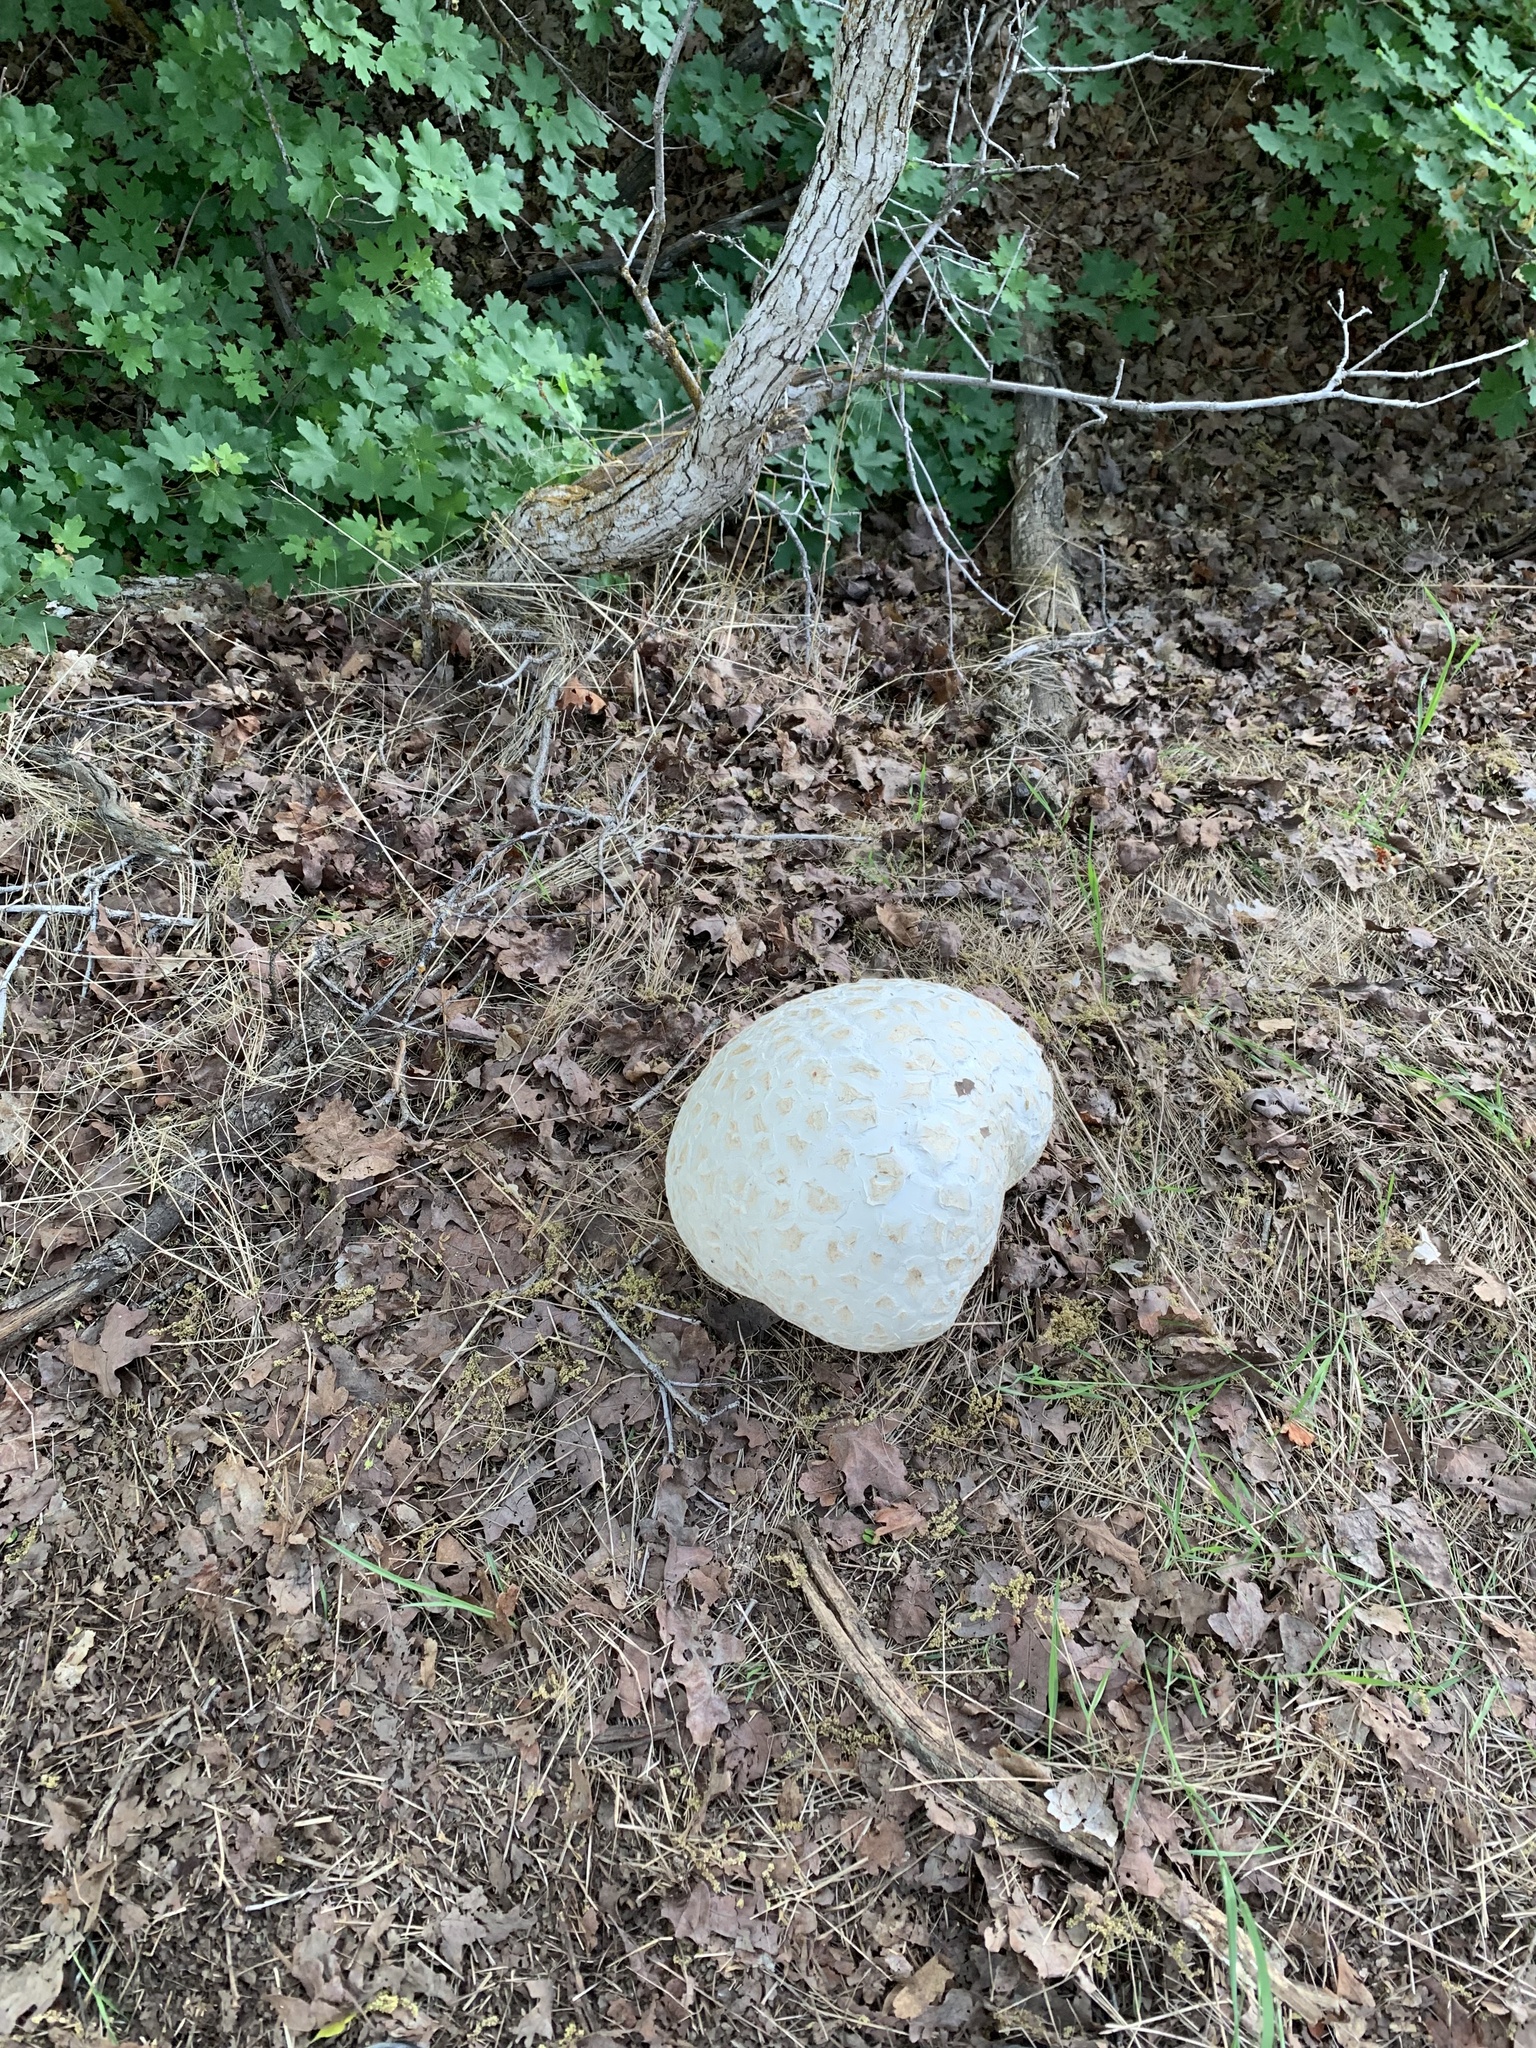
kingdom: Fungi
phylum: Basidiomycota
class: Agaricomycetes
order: Agaricales
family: Lycoperdaceae
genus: Calvatia
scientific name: Calvatia booniana
